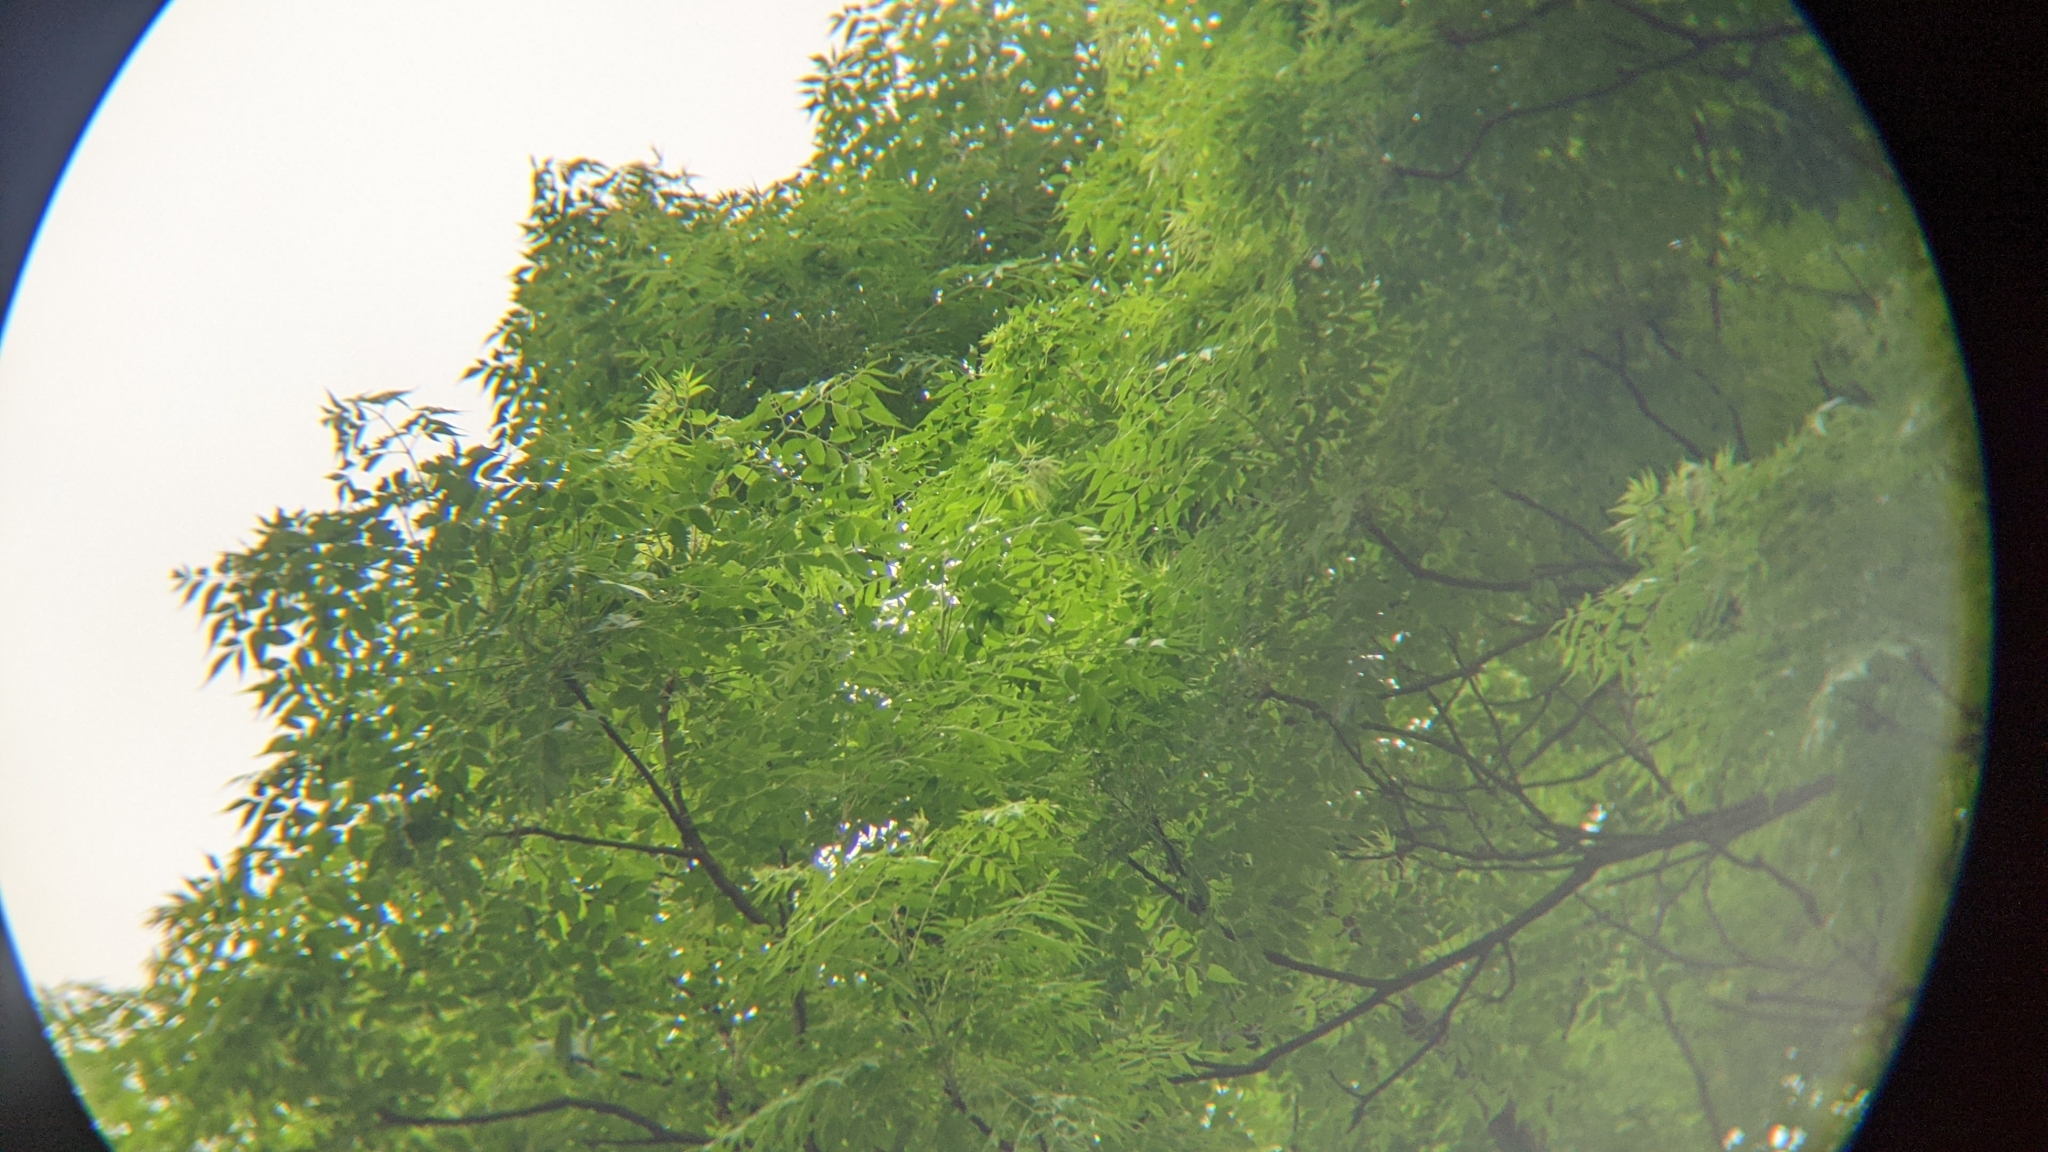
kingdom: Plantae
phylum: Tracheophyta
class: Magnoliopsida
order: Sapindales
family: Meliaceae
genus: Melia
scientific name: Melia azedarach
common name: Chinaberrytree
